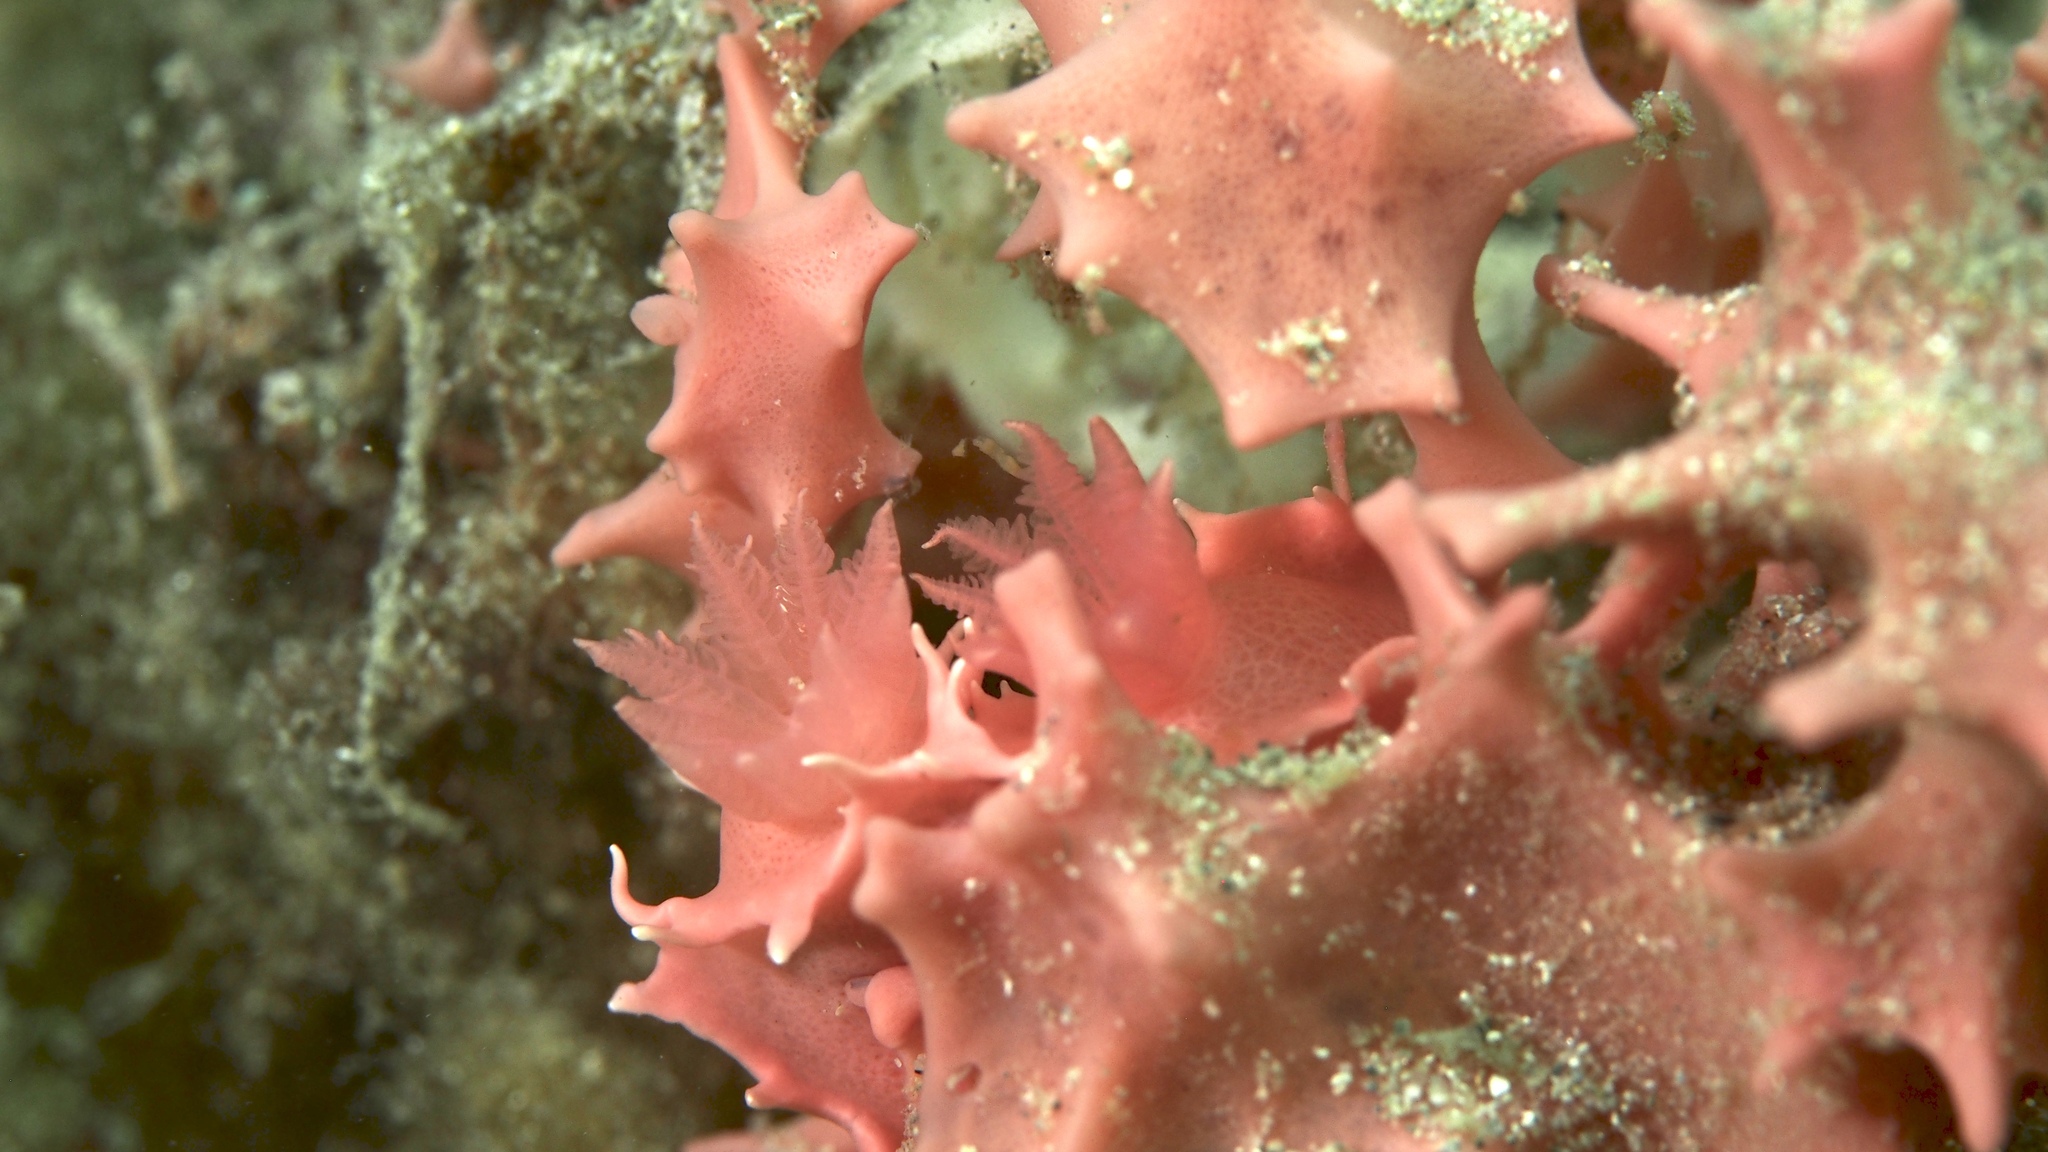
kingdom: Animalia
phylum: Mollusca
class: Gastropoda
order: Nudibranchia
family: Chromodorididae
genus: Verconia
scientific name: Verconia verconis
